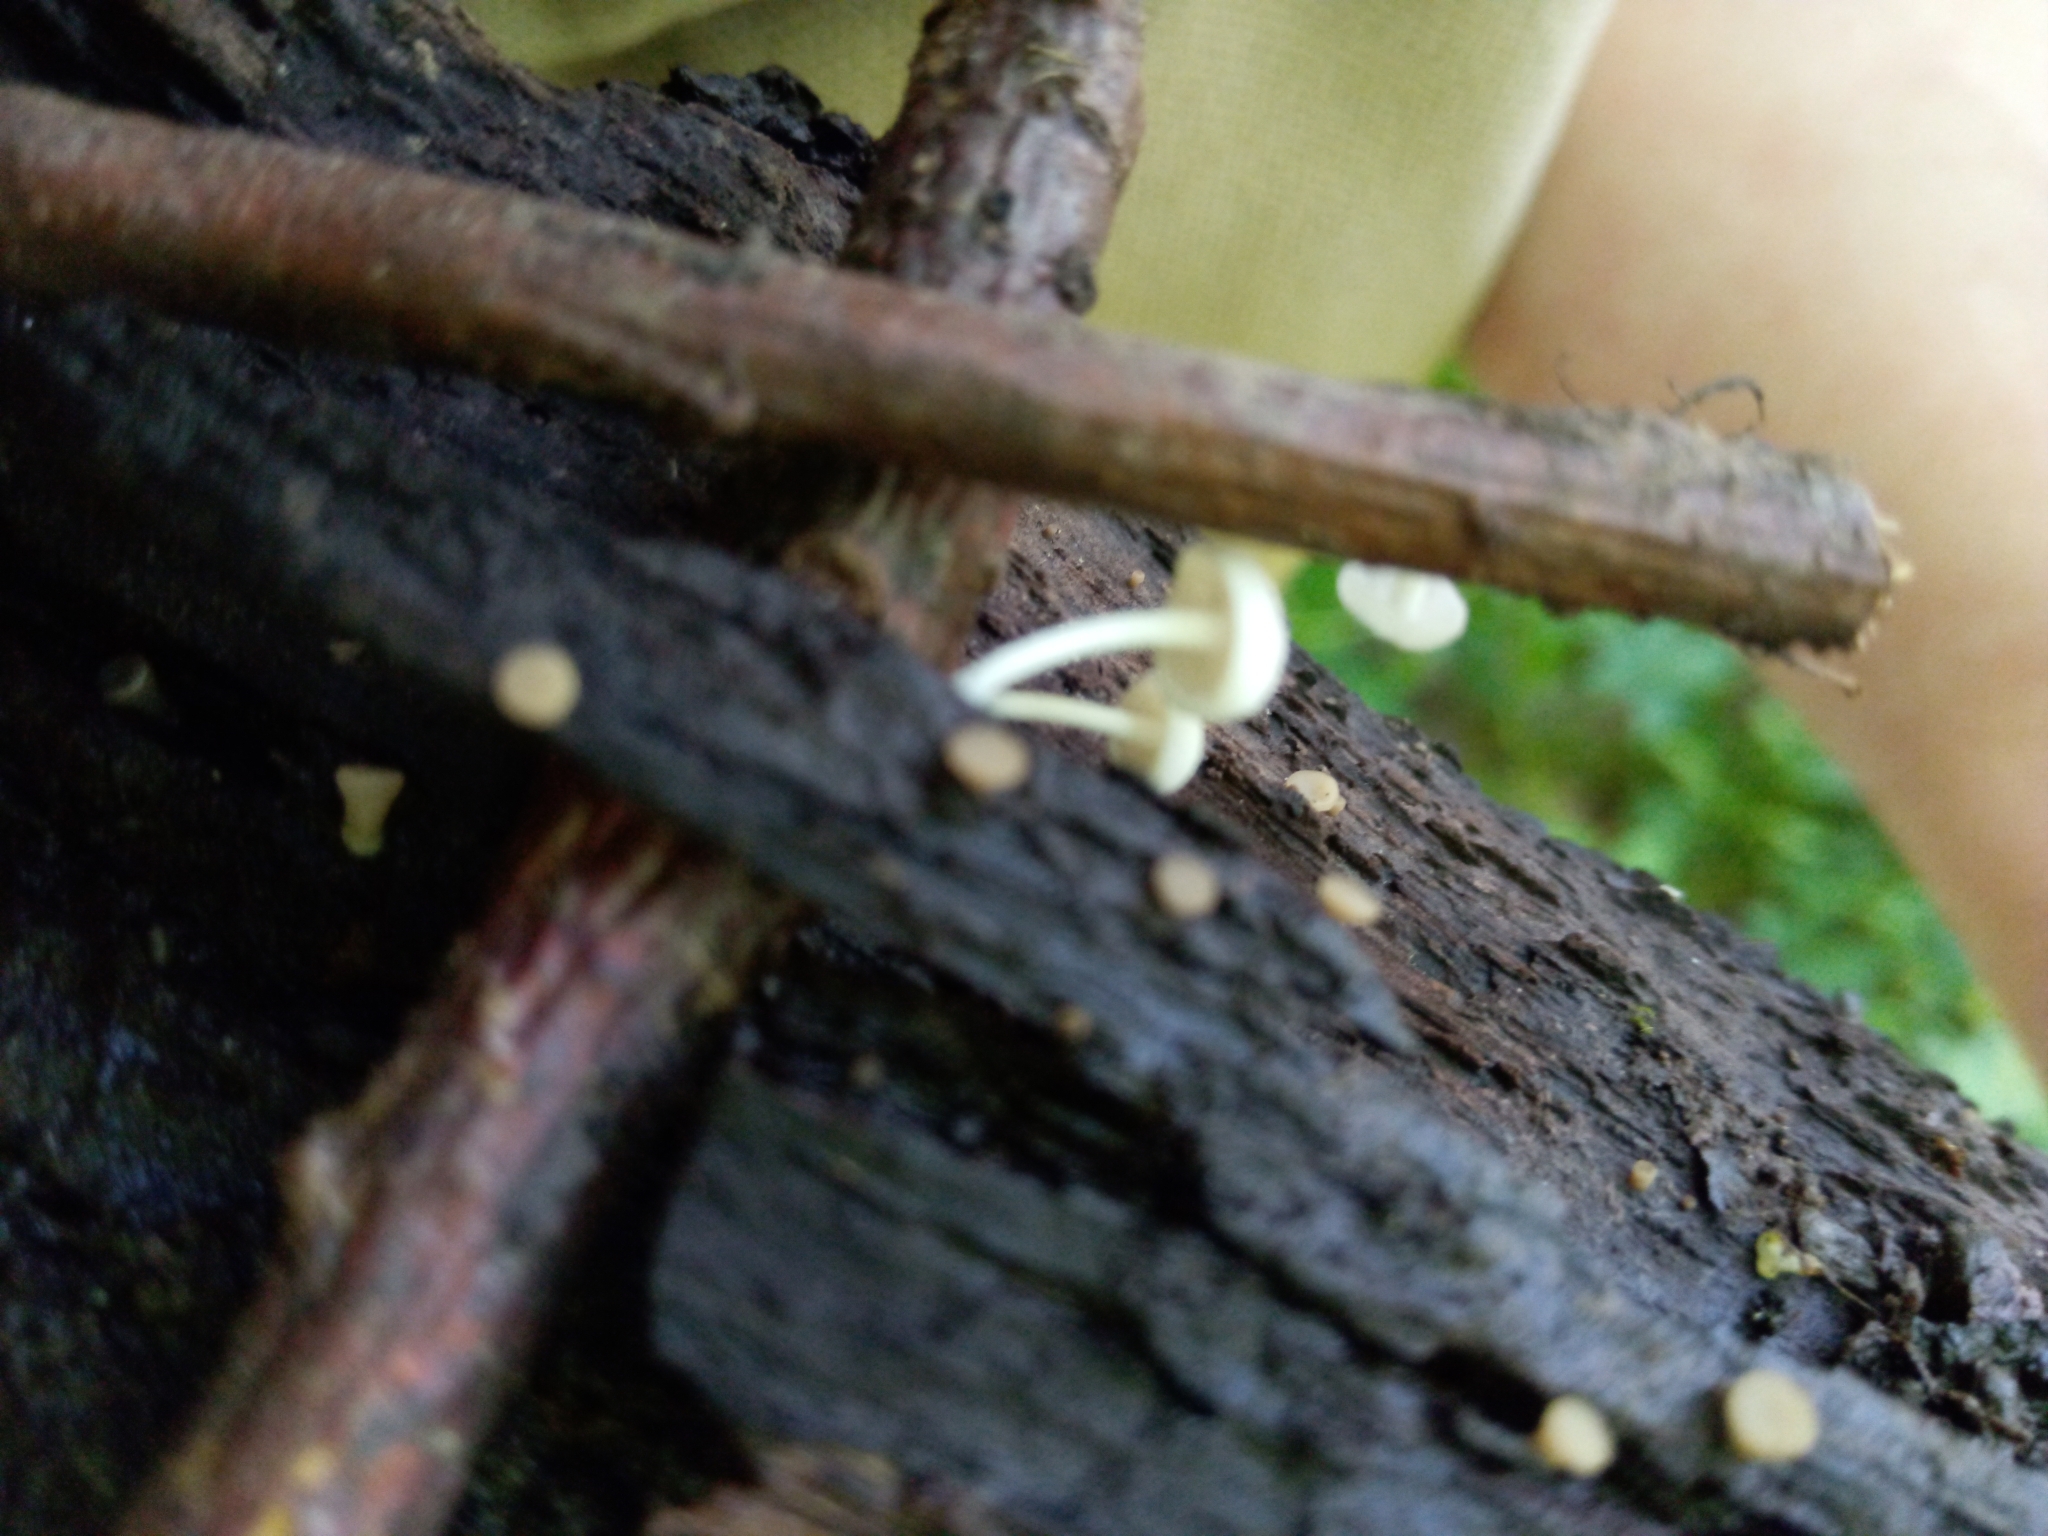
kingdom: Fungi
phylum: Basidiomycota
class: Agaricomycetes
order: Agaricales
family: Marasmiaceae
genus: Tetrapyrgos
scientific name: Tetrapyrgos nigripes
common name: Black-stalked marasmius
